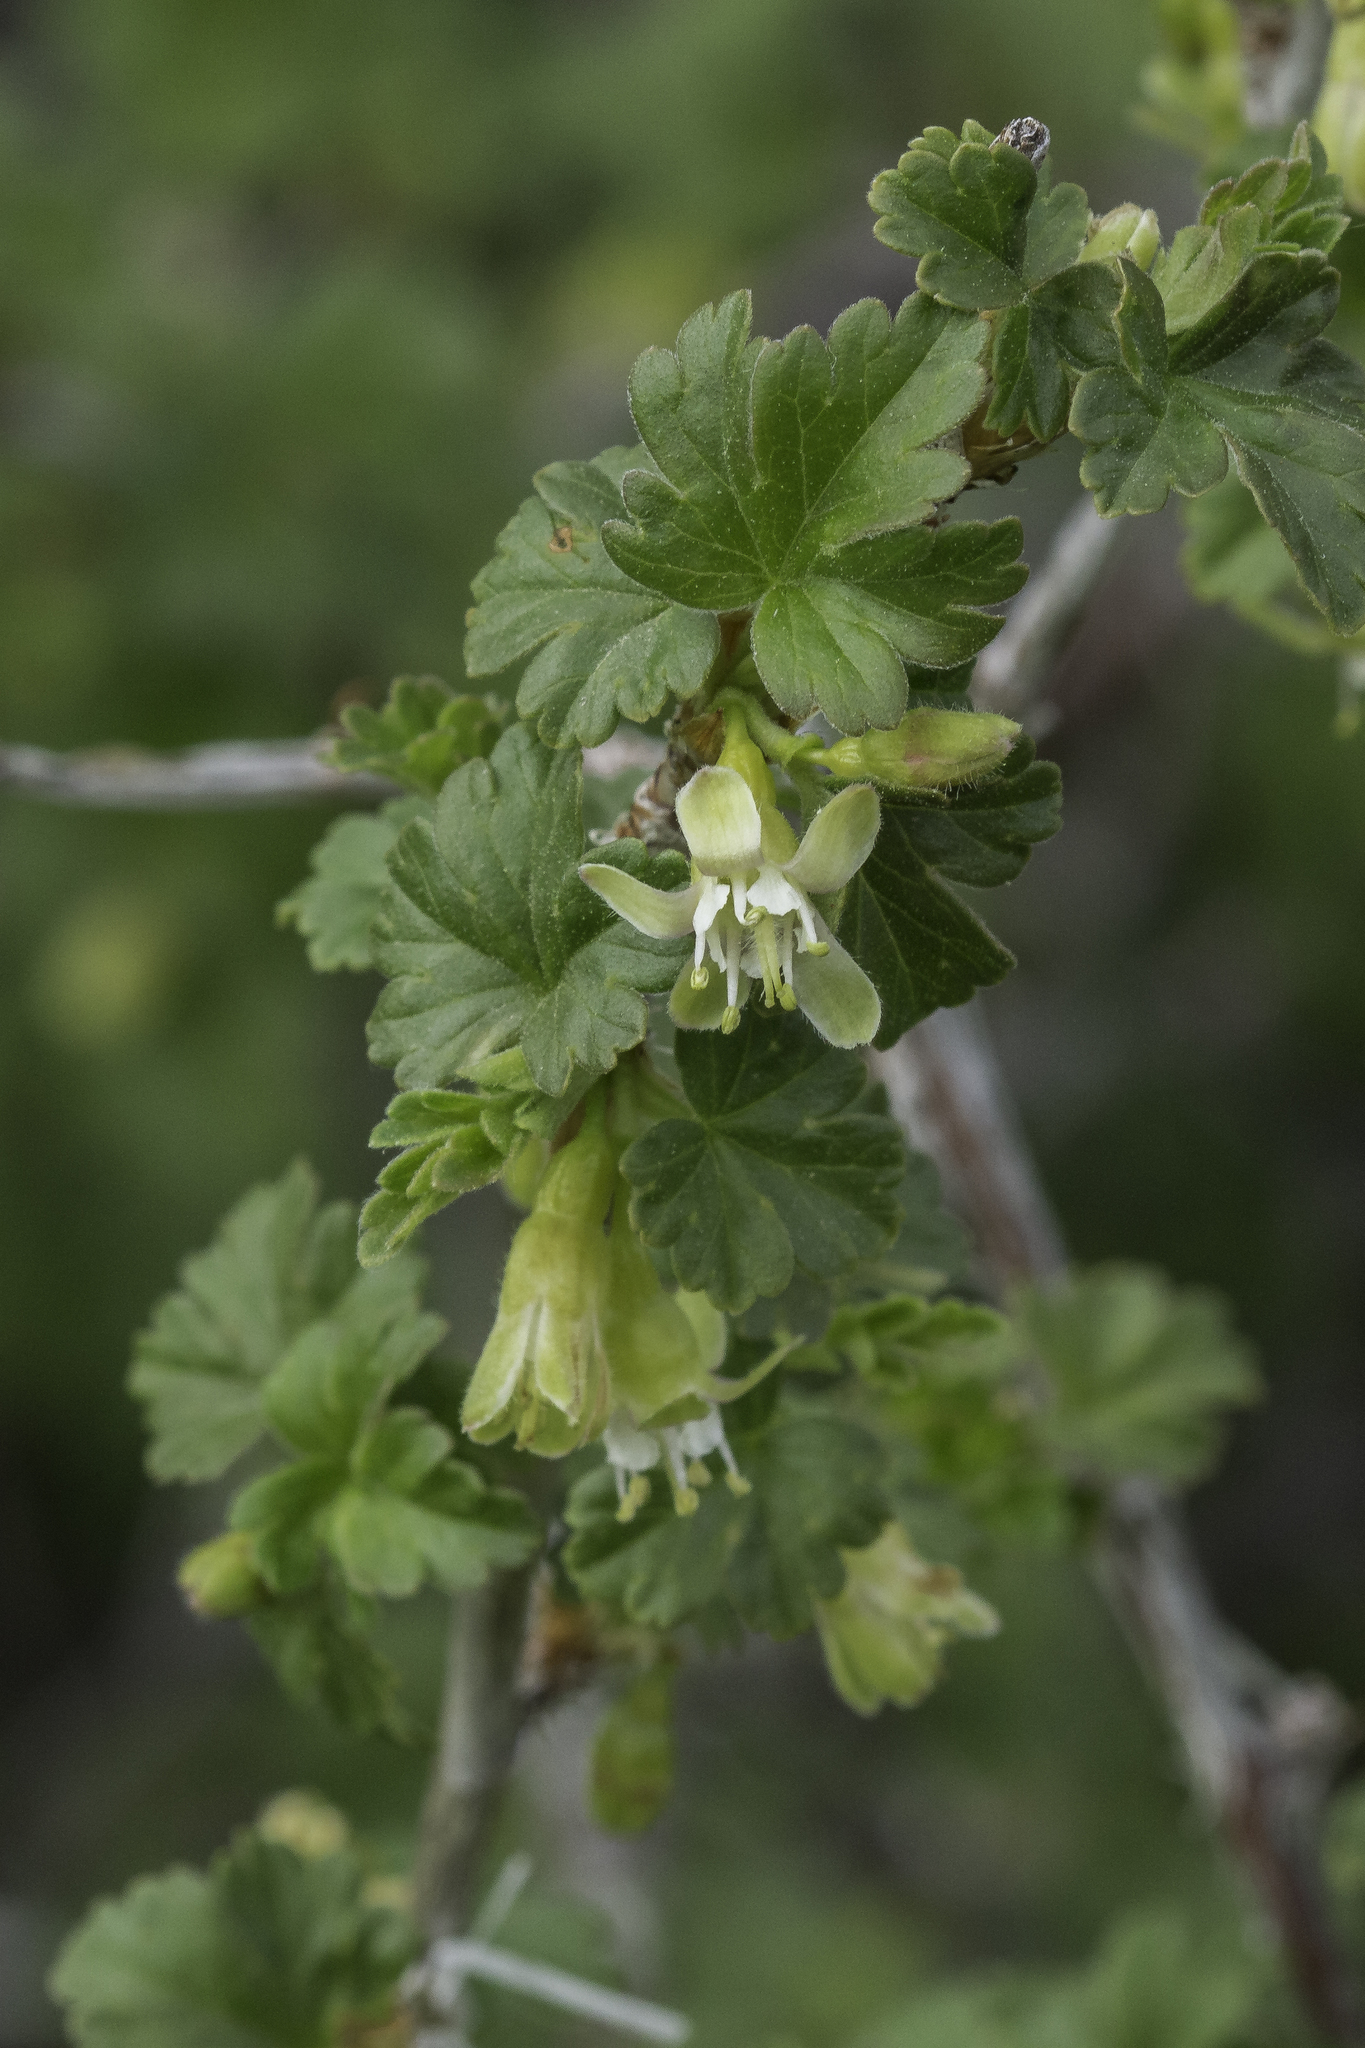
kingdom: Plantae
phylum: Tracheophyta
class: Magnoliopsida
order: Saxifragales
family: Grossulariaceae
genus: Ribes
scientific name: Ribes inerme
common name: White-stem gooseberry
